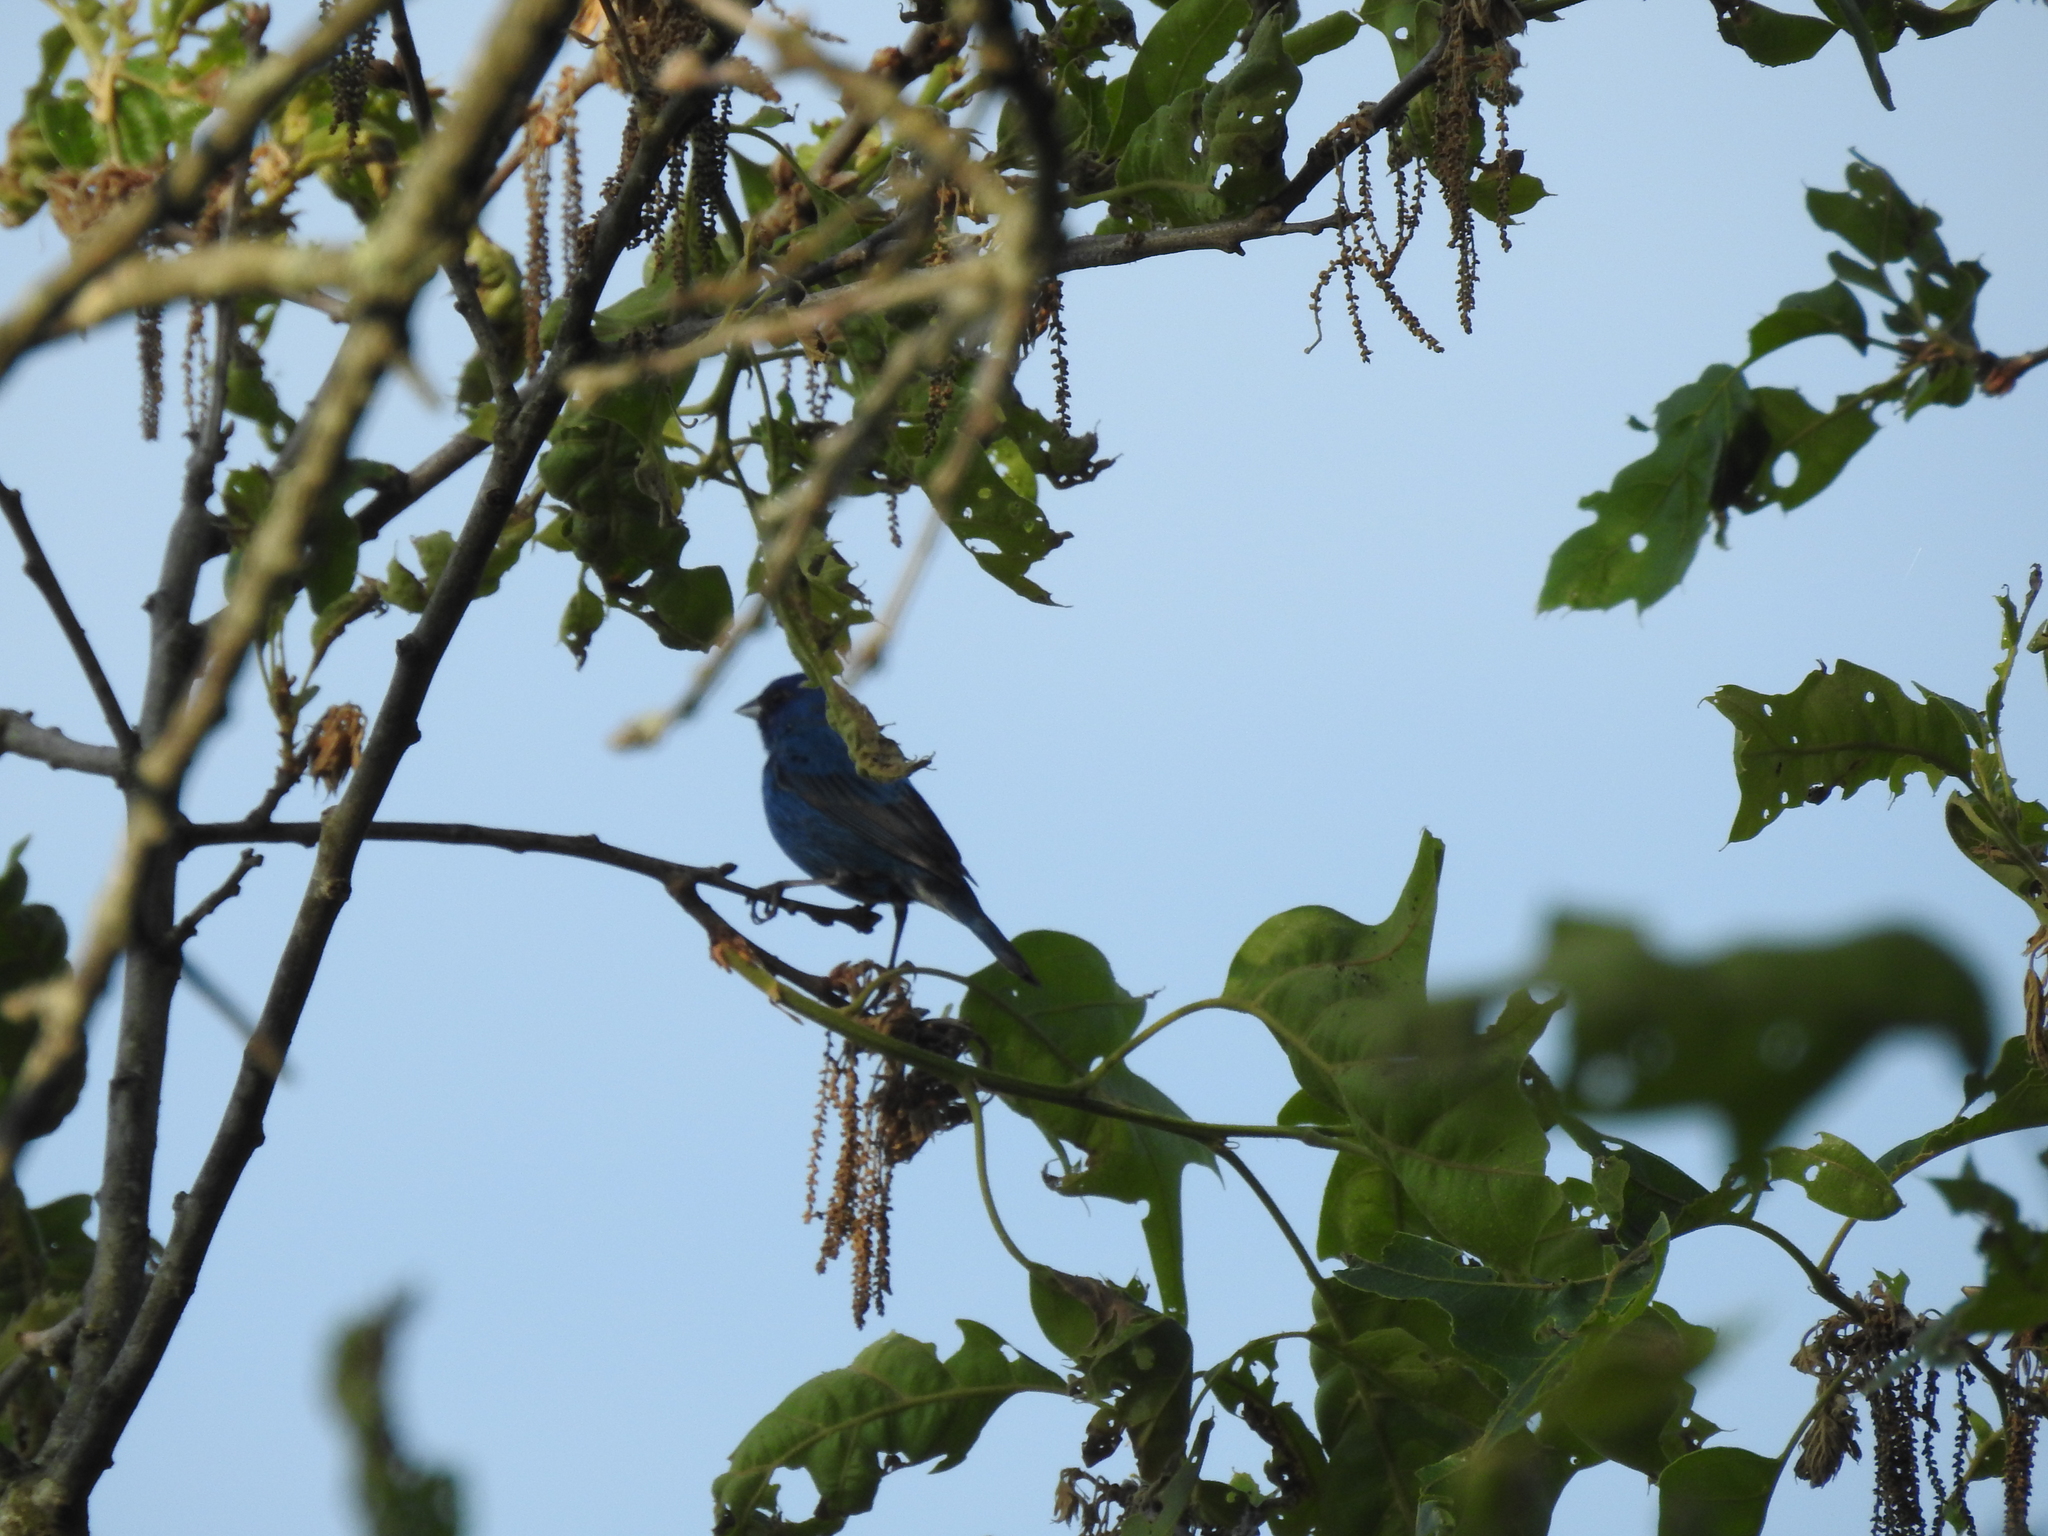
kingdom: Animalia
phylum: Chordata
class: Aves
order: Passeriformes
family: Cardinalidae
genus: Passerina
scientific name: Passerina cyanea
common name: Indigo bunting
